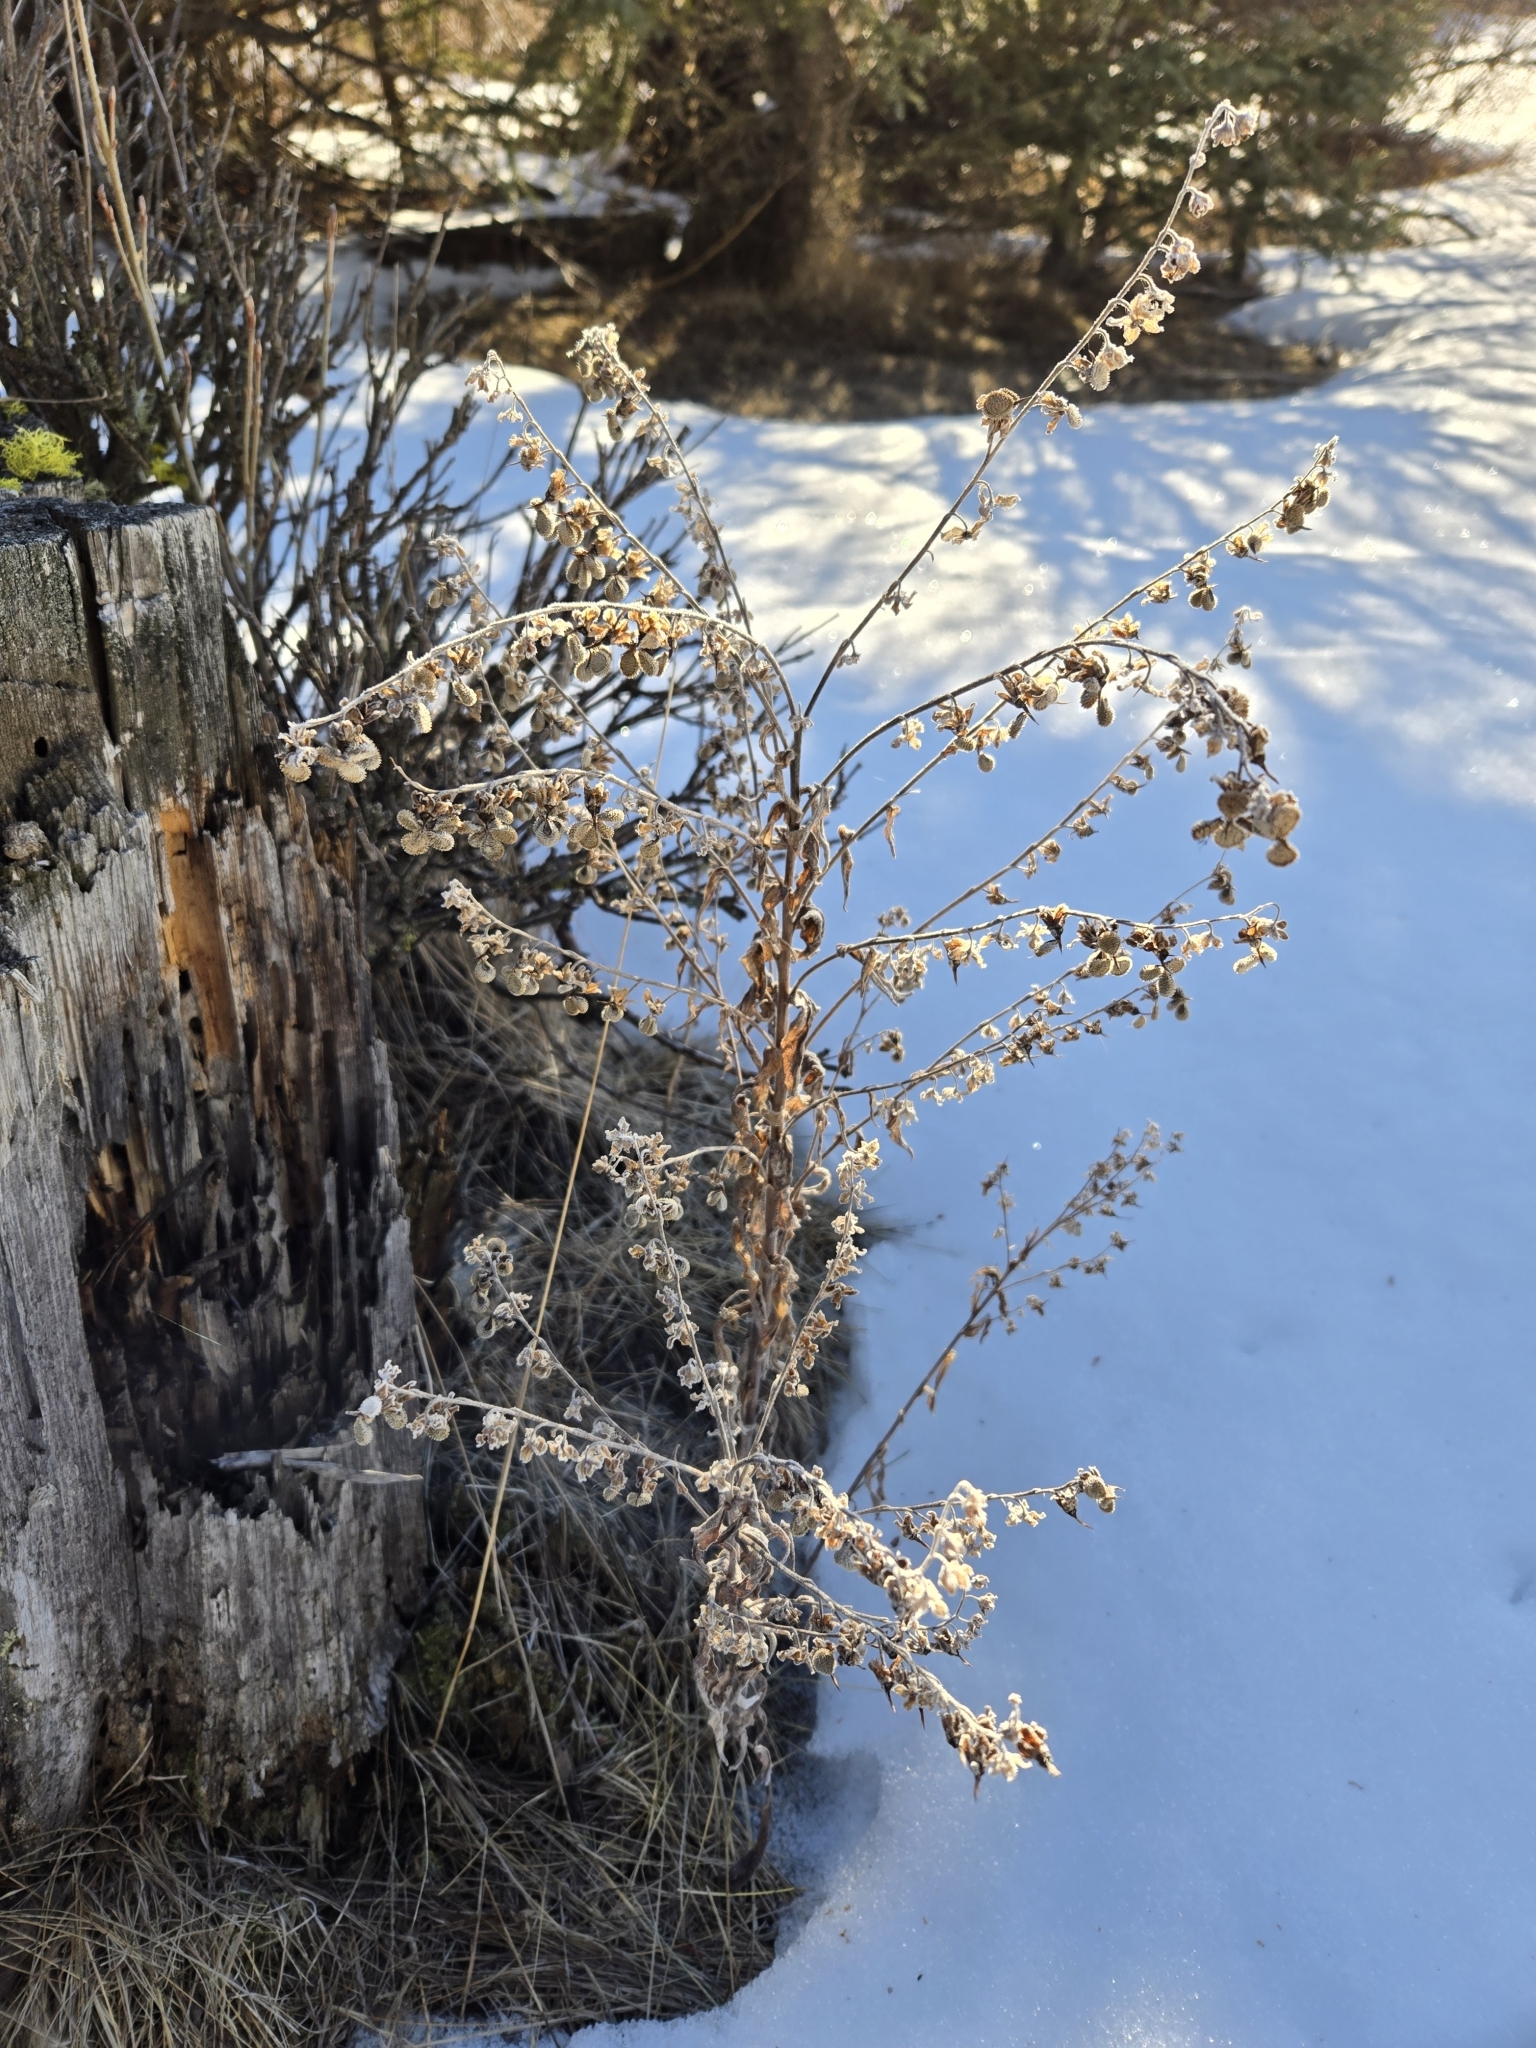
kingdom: Plantae
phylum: Tracheophyta
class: Magnoliopsida
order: Boraginales
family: Boraginaceae
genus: Cynoglossum
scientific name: Cynoglossum officinale
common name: Hound's-tongue
